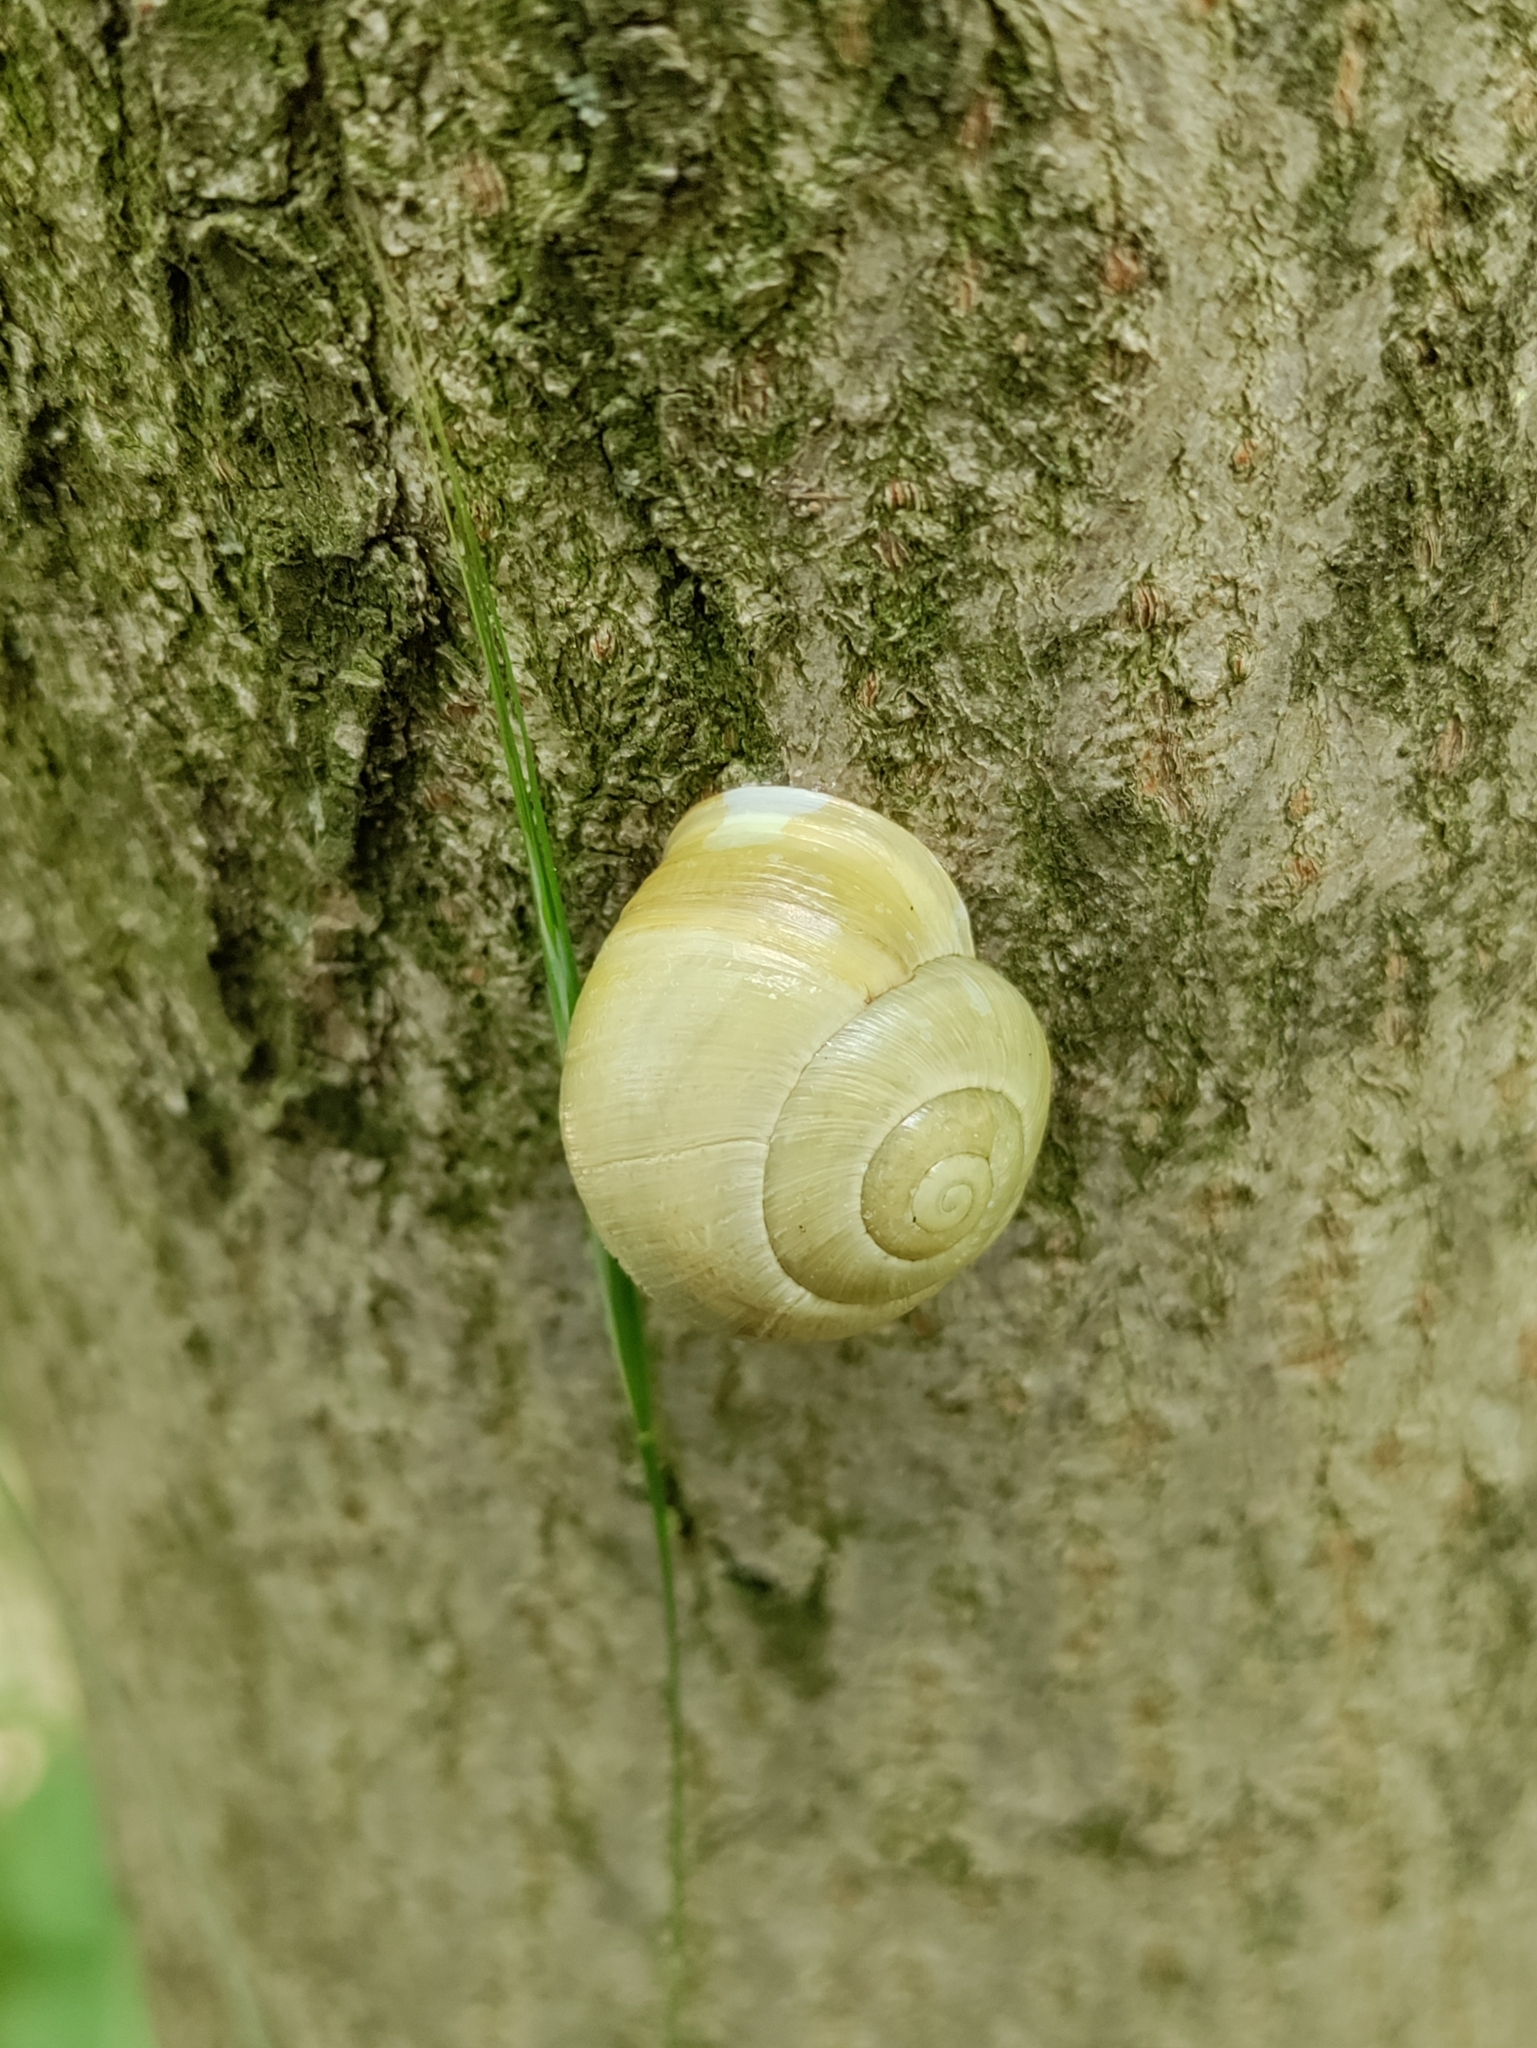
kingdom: Animalia
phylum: Mollusca
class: Gastropoda
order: Stylommatophora
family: Helicidae
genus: Cepaea
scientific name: Cepaea hortensis
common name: White-lip gardensnail
